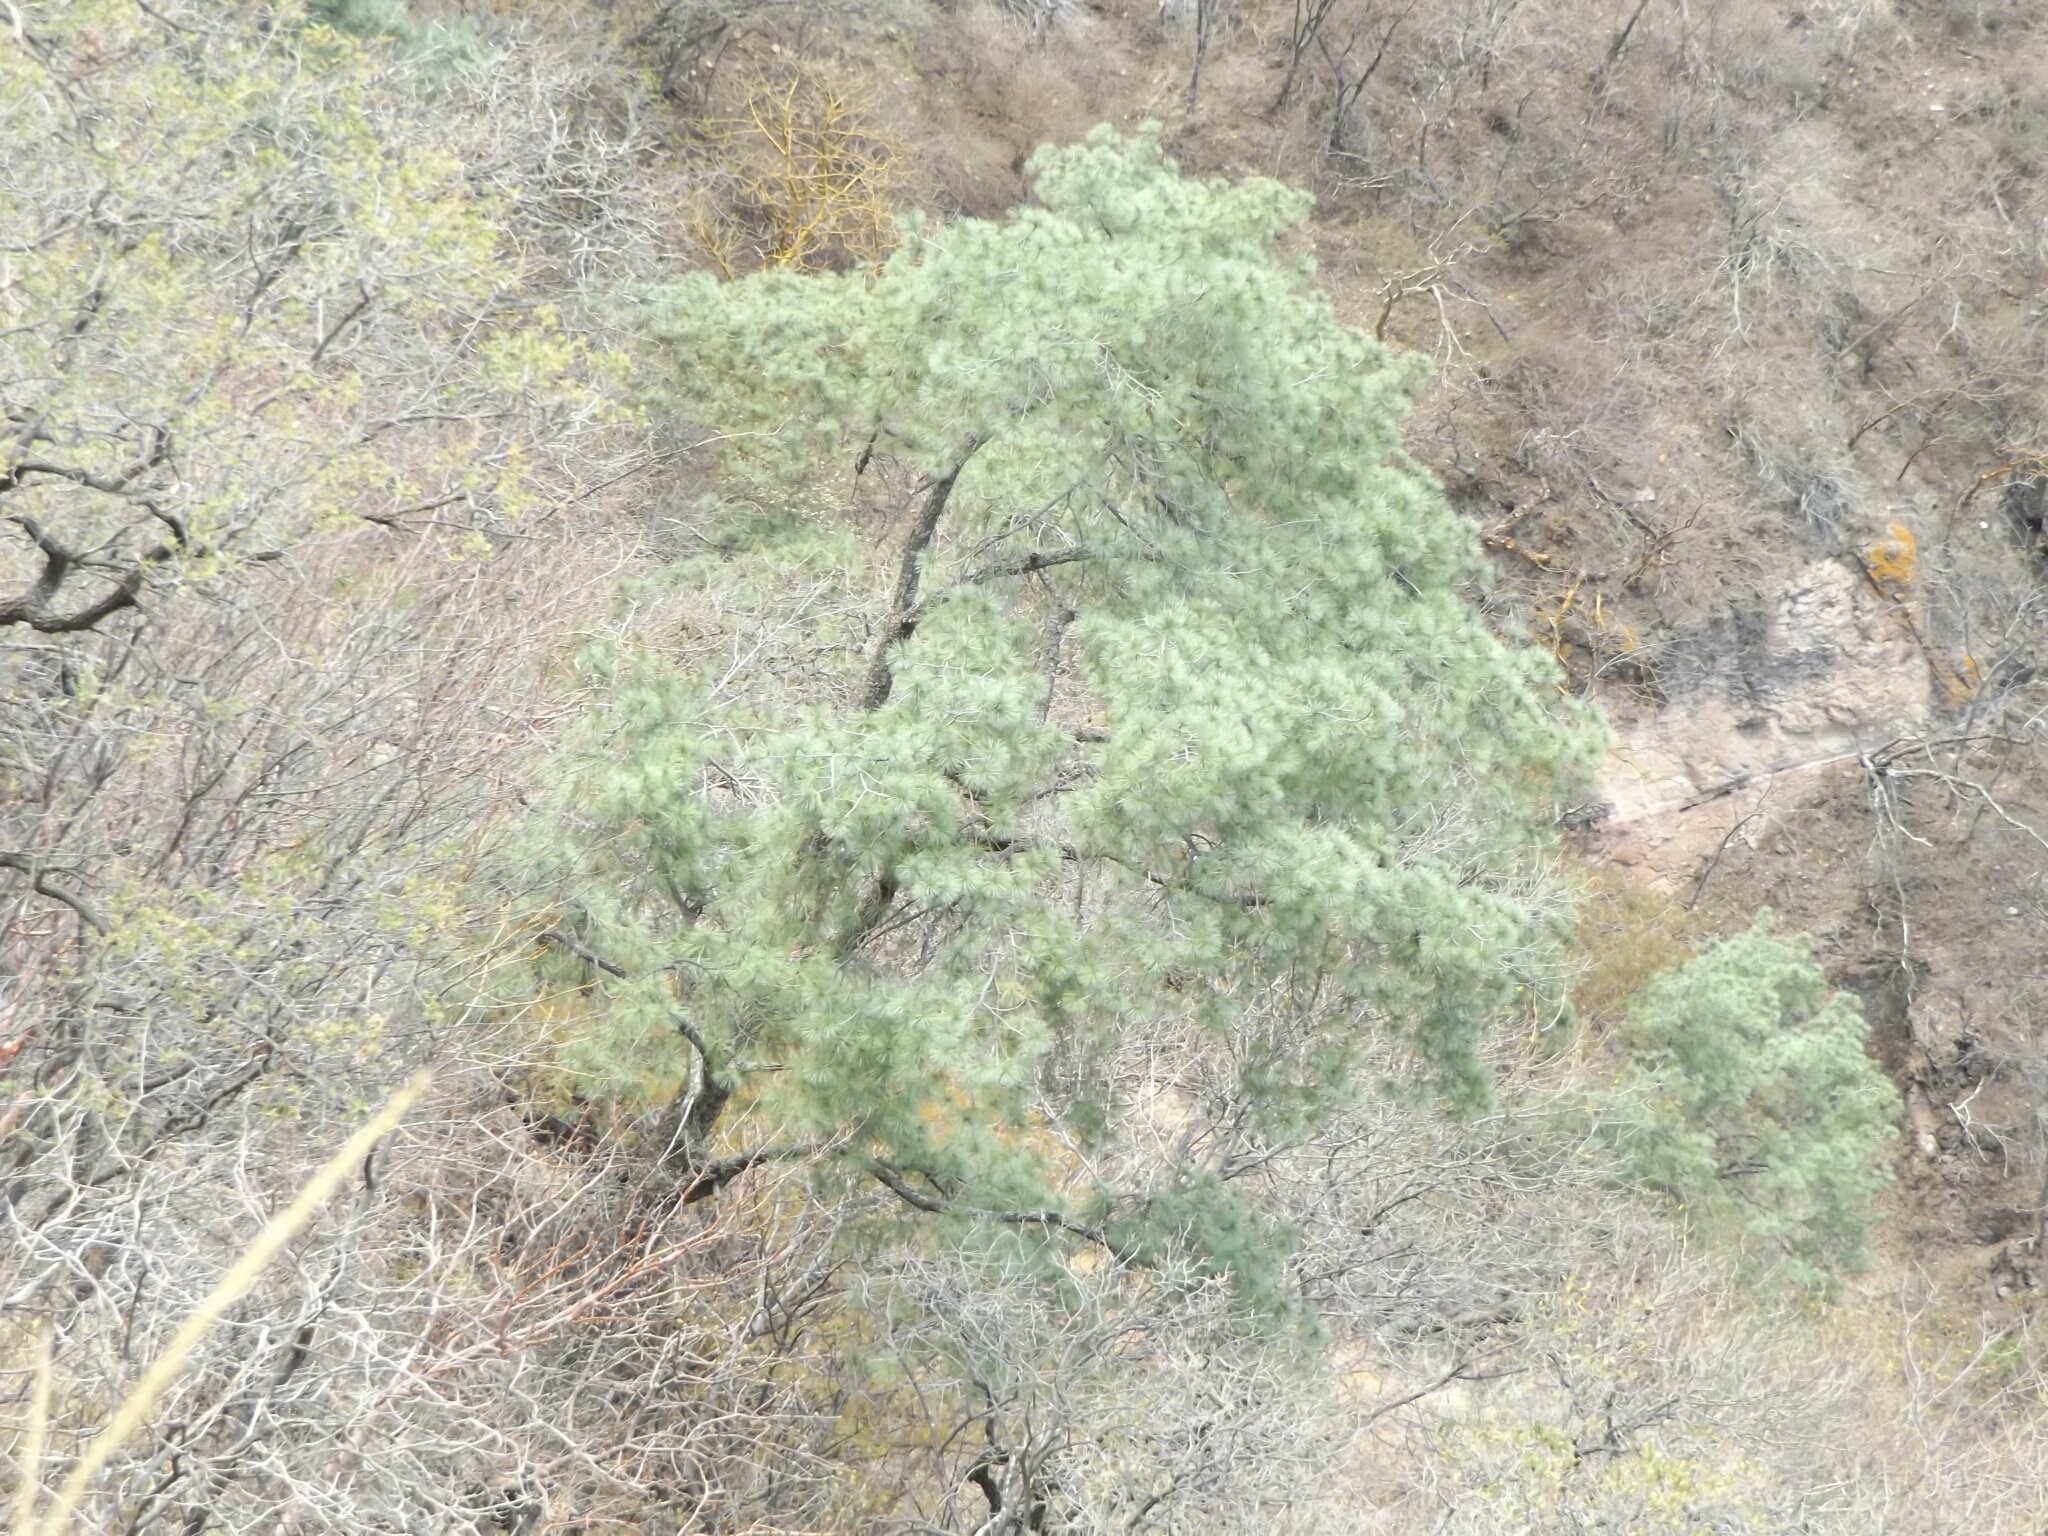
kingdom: Plantae
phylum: Tracheophyta
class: Pinopsida
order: Pinales
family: Pinaceae
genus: Pinus
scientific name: Pinus maximartinezii
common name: Big-cone pinyon
